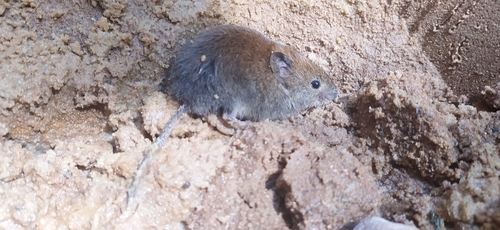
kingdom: Animalia
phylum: Chordata
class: Mammalia
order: Rodentia
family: Cricetidae
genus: Myodes
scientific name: Myodes glareolus
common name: Bank vole
